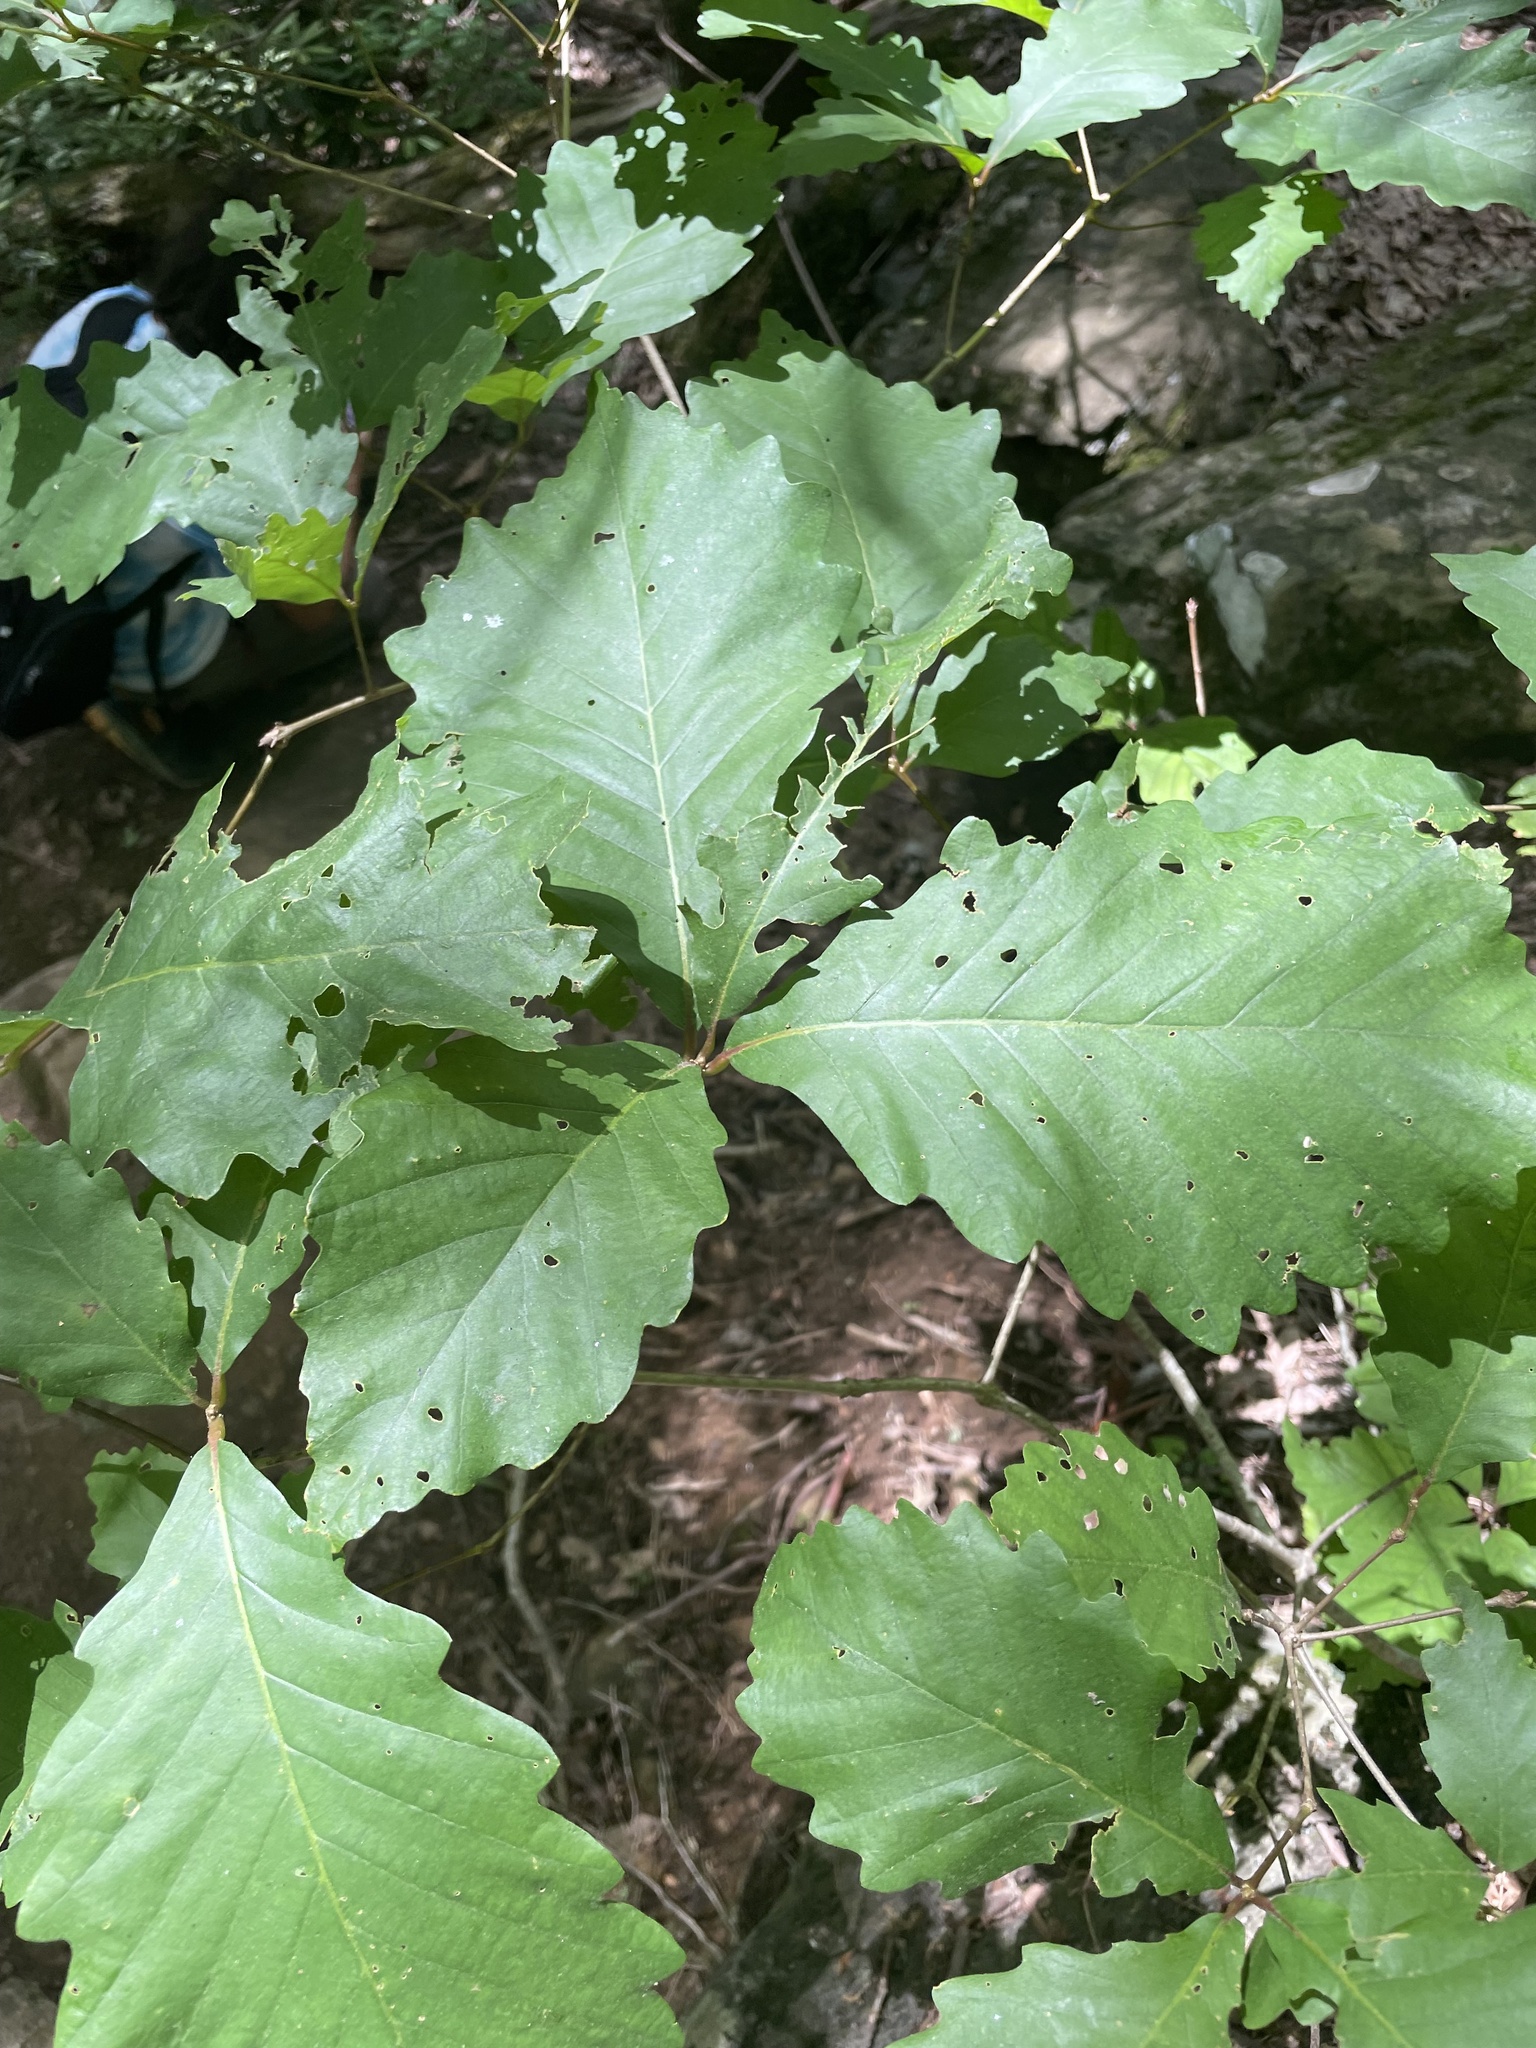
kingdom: Plantae
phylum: Tracheophyta
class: Magnoliopsida
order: Fagales
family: Fagaceae
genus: Quercus
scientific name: Quercus montana
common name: Chestnut oak
